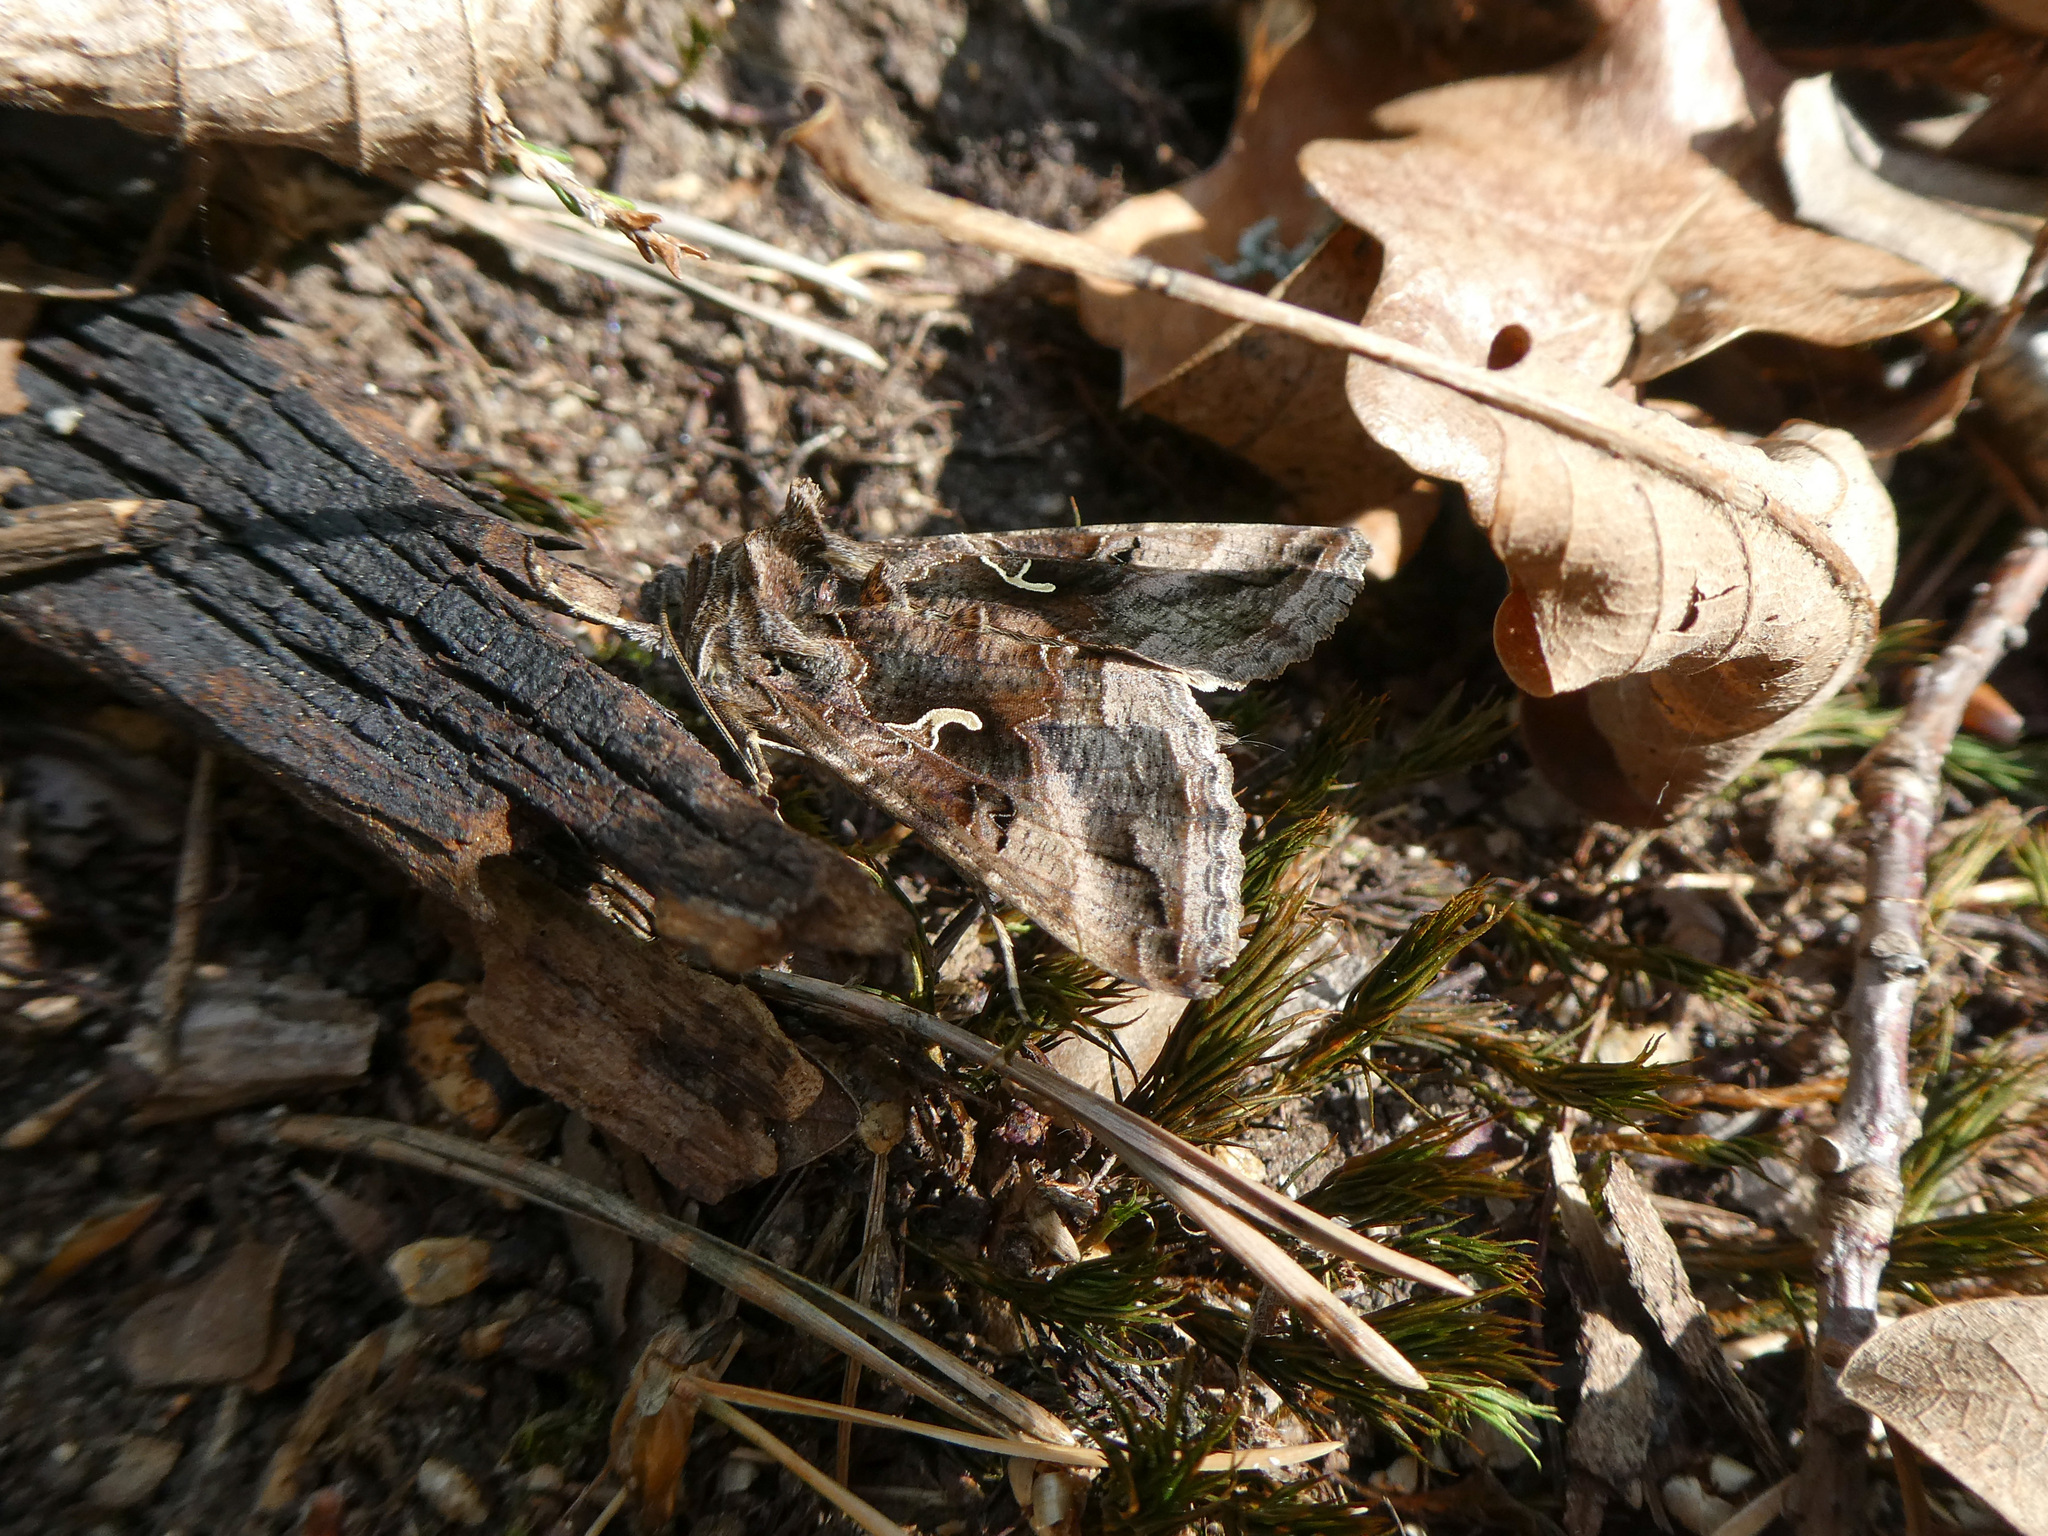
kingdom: Animalia
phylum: Arthropoda
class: Insecta
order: Lepidoptera
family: Noctuidae
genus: Autographa
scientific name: Autographa gamma
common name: Silver y
